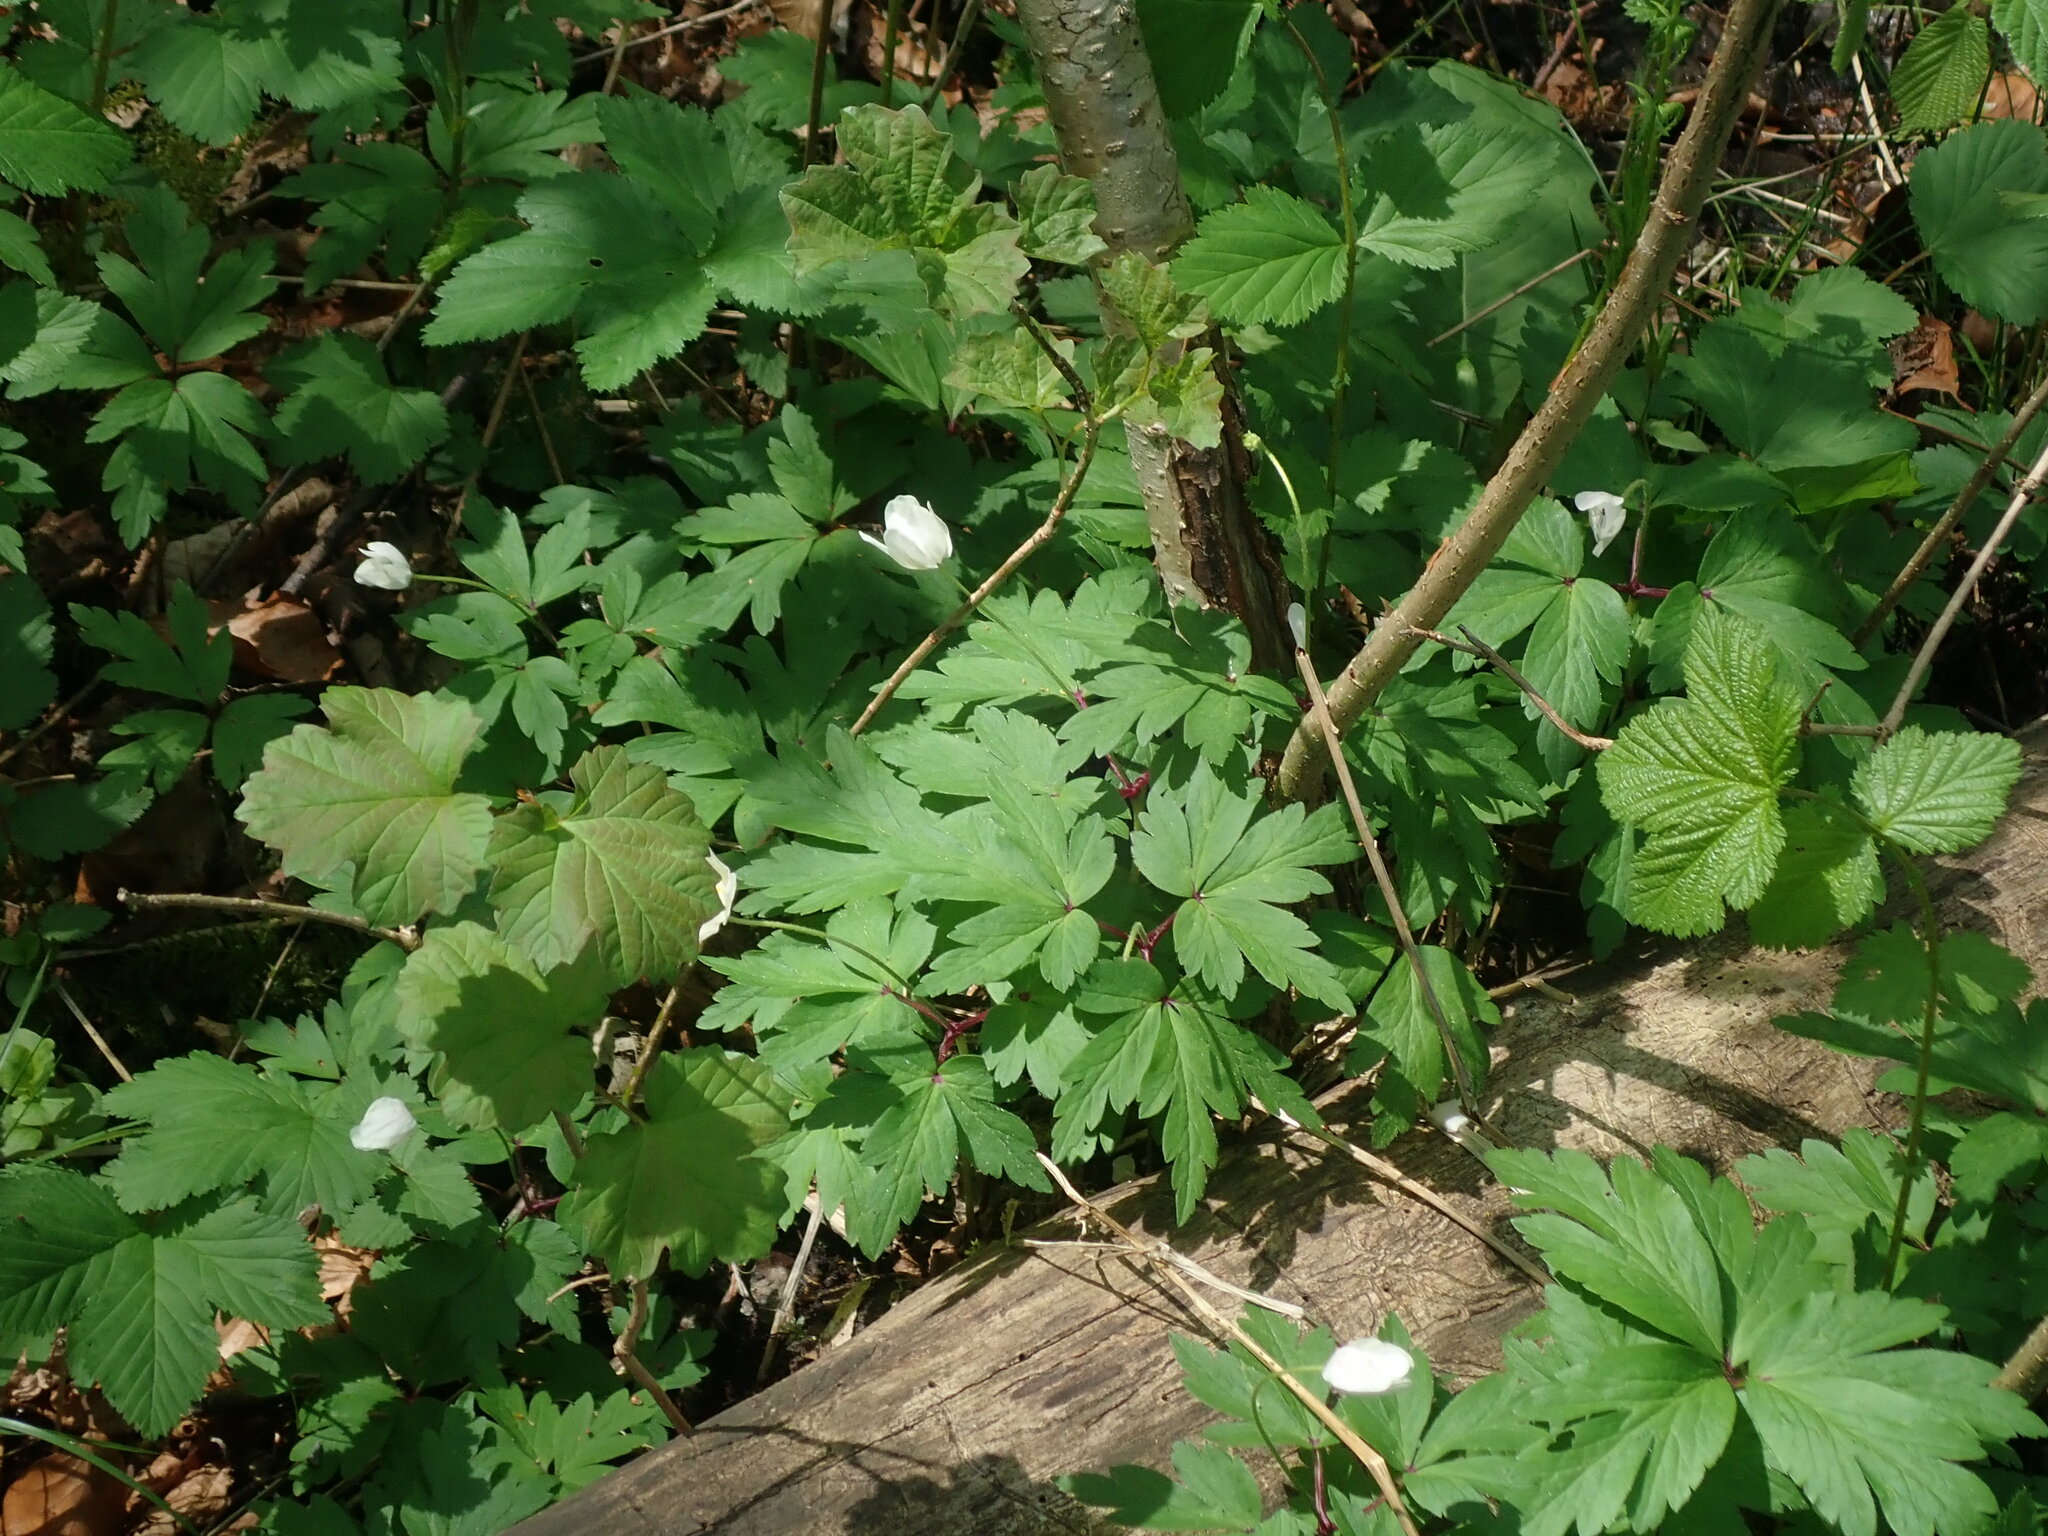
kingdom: Plantae
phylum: Tracheophyta
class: Magnoliopsida
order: Ranunculales
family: Ranunculaceae
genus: Anemone
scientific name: Anemone nemorosa
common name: Wood anemone
